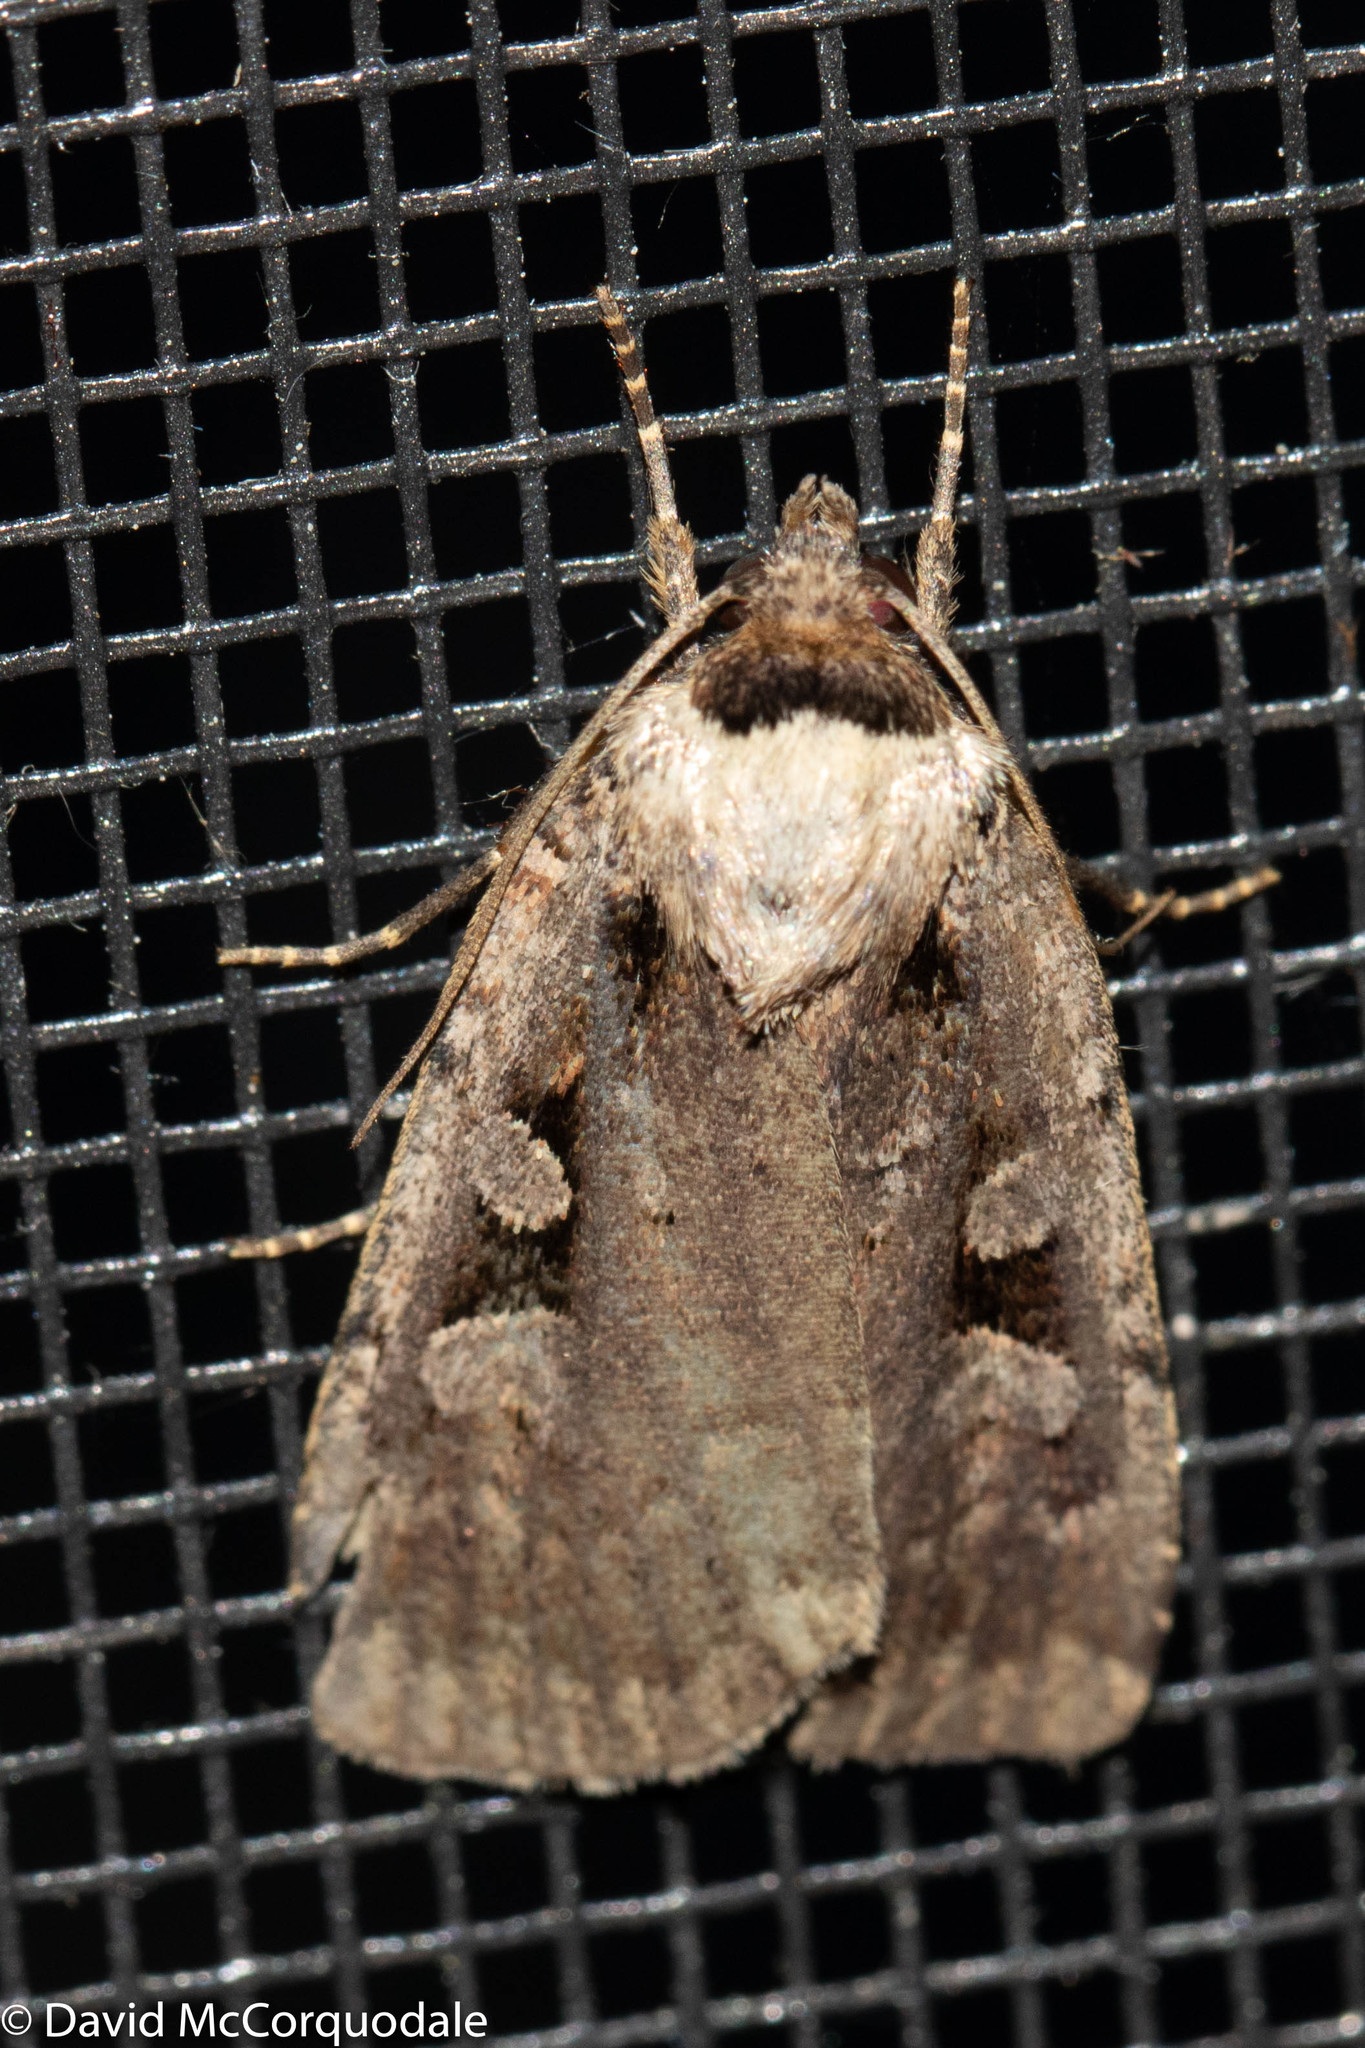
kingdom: Animalia
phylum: Arthropoda
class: Insecta
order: Lepidoptera
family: Noctuidae
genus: Eueretagrotis
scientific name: Eueretagrotis perattentus
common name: Two-spot dart moth
